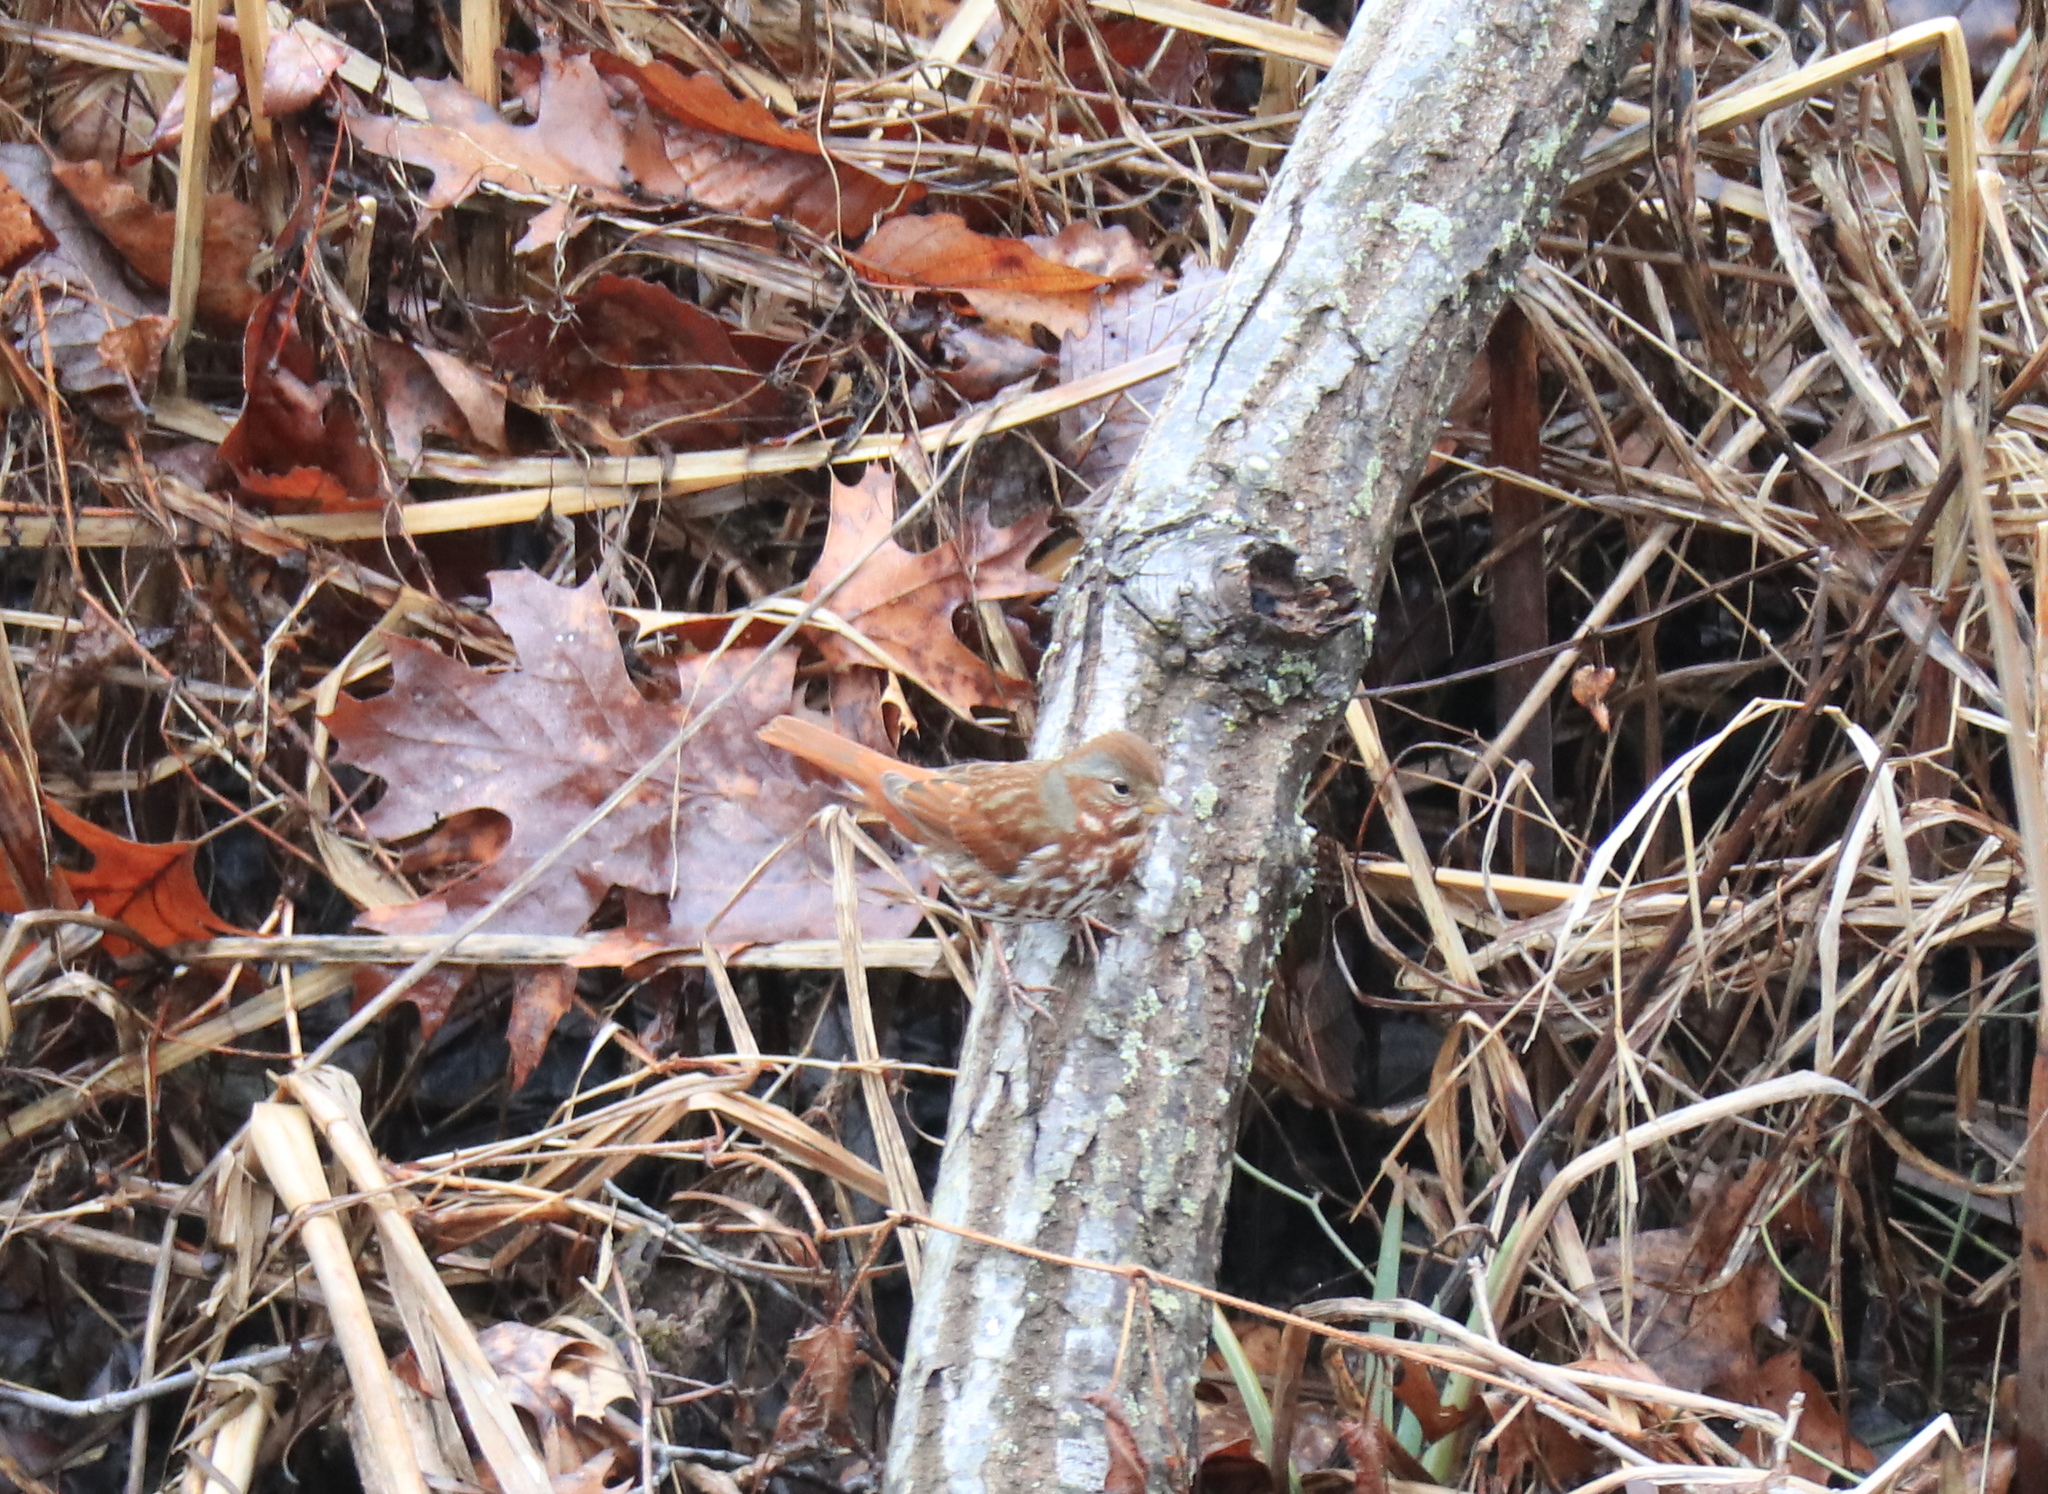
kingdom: Animalia
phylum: Chordata
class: Aves
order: Passeriformes
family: Passerellidae
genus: Passerella
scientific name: Passerella iliaca
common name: Fox sparrow
